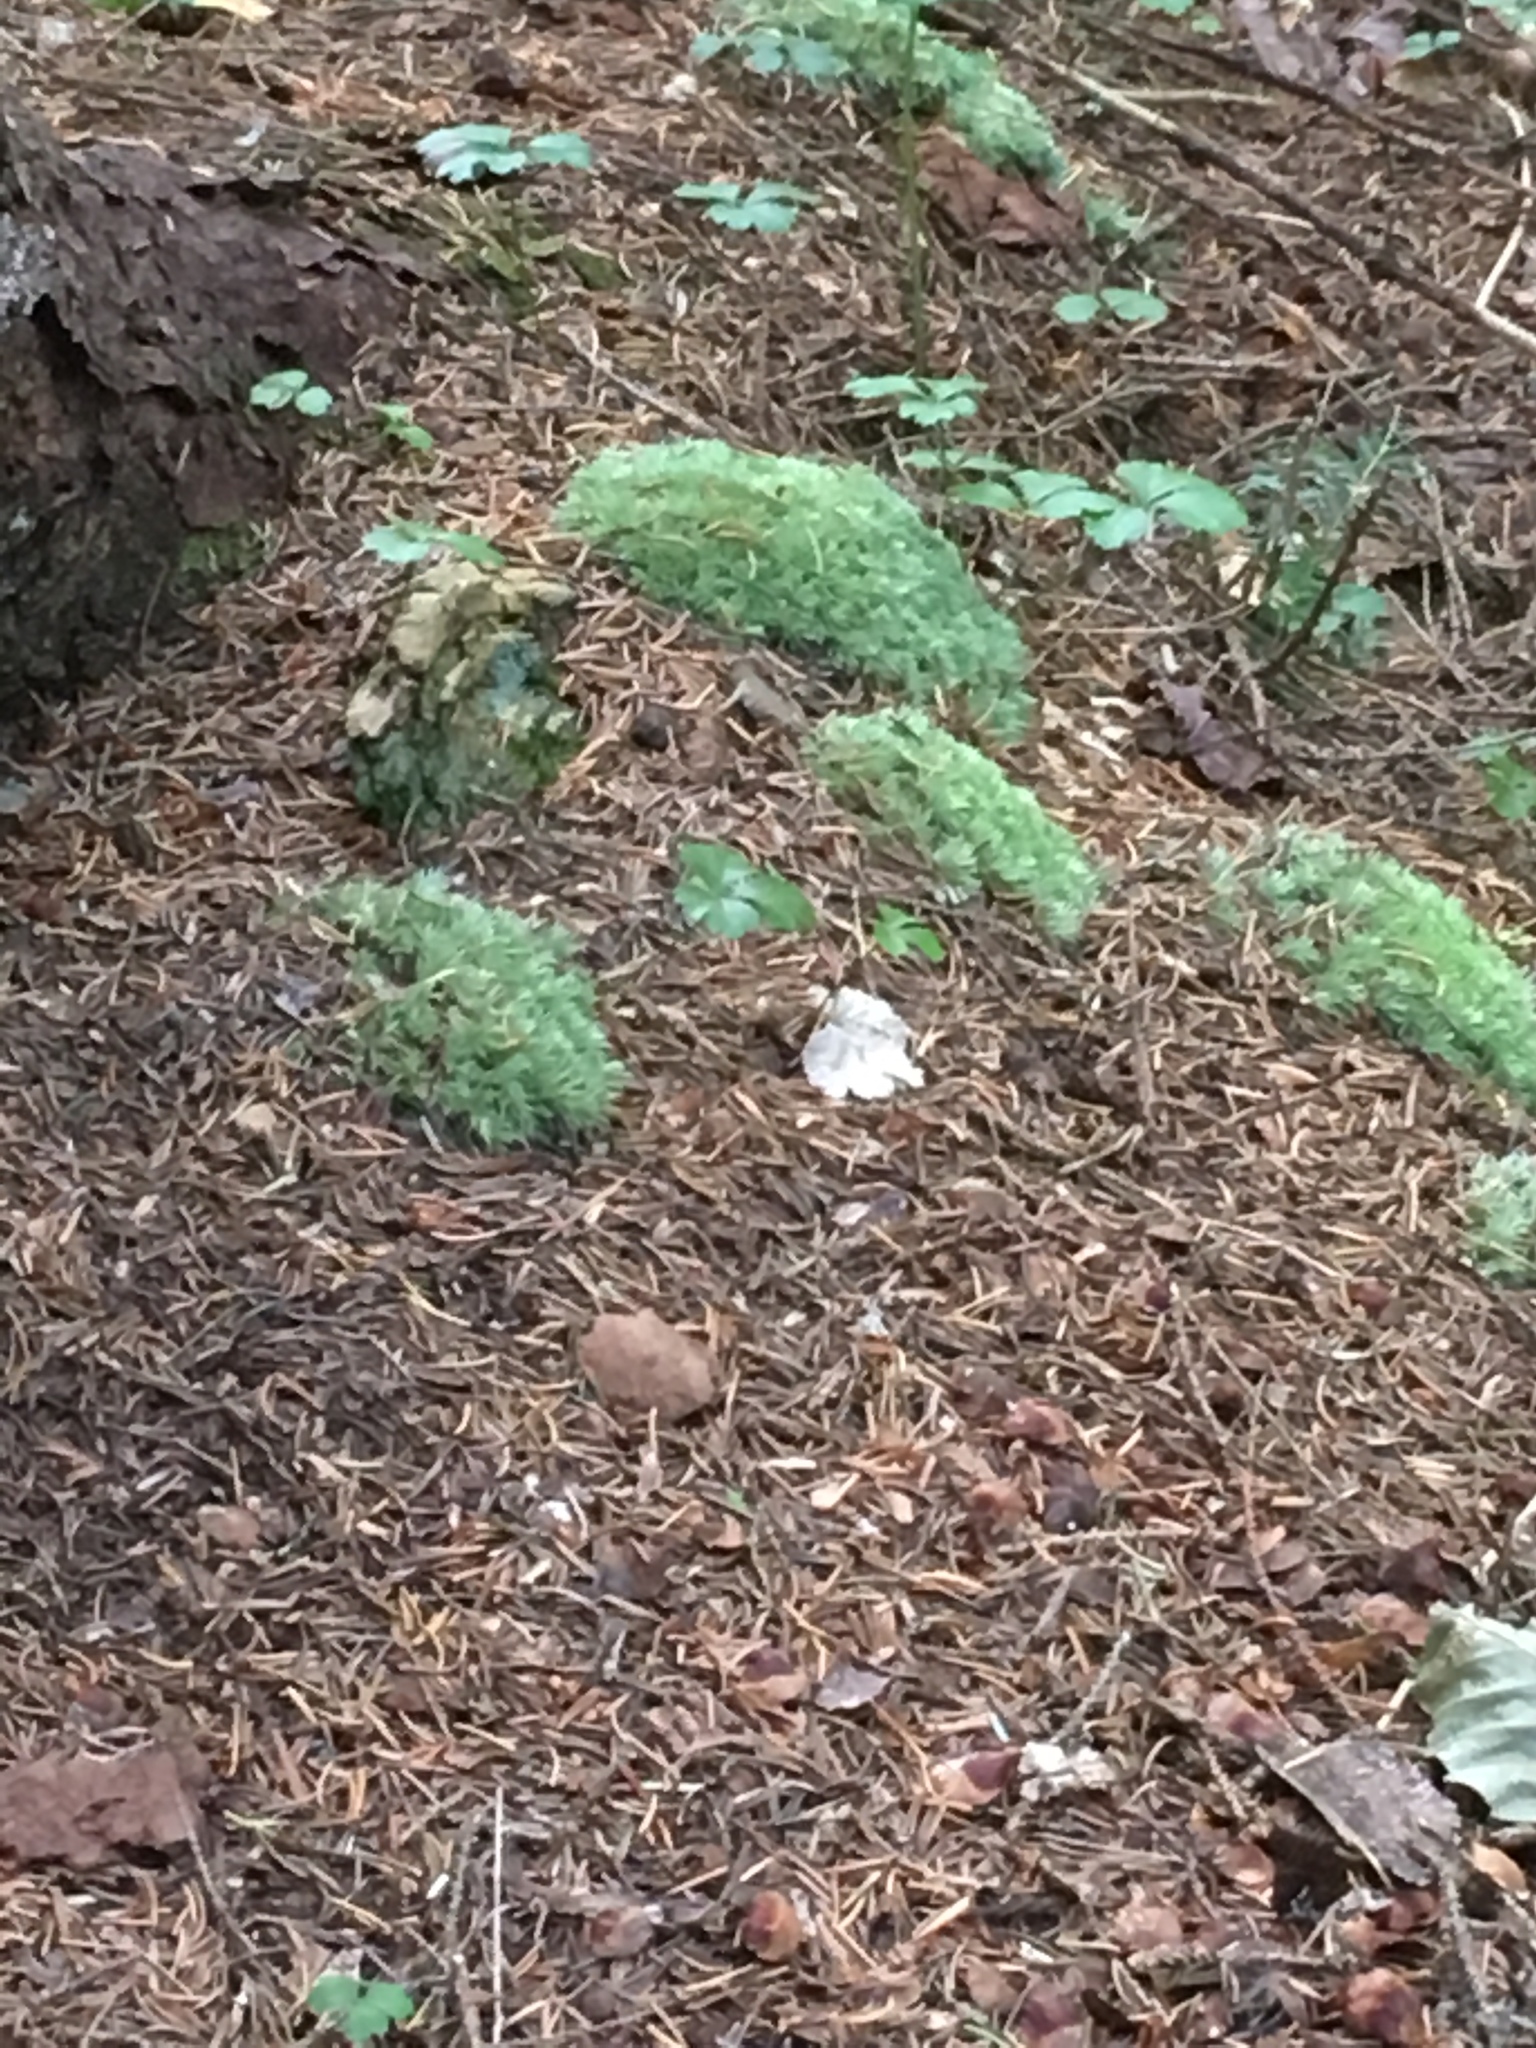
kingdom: Plantae
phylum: Bryophyta
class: Bryopsida
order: Dicranales
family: Leucobryaceae
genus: Leucobryum
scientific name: Leucobryum glaucum
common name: Large white-moss
